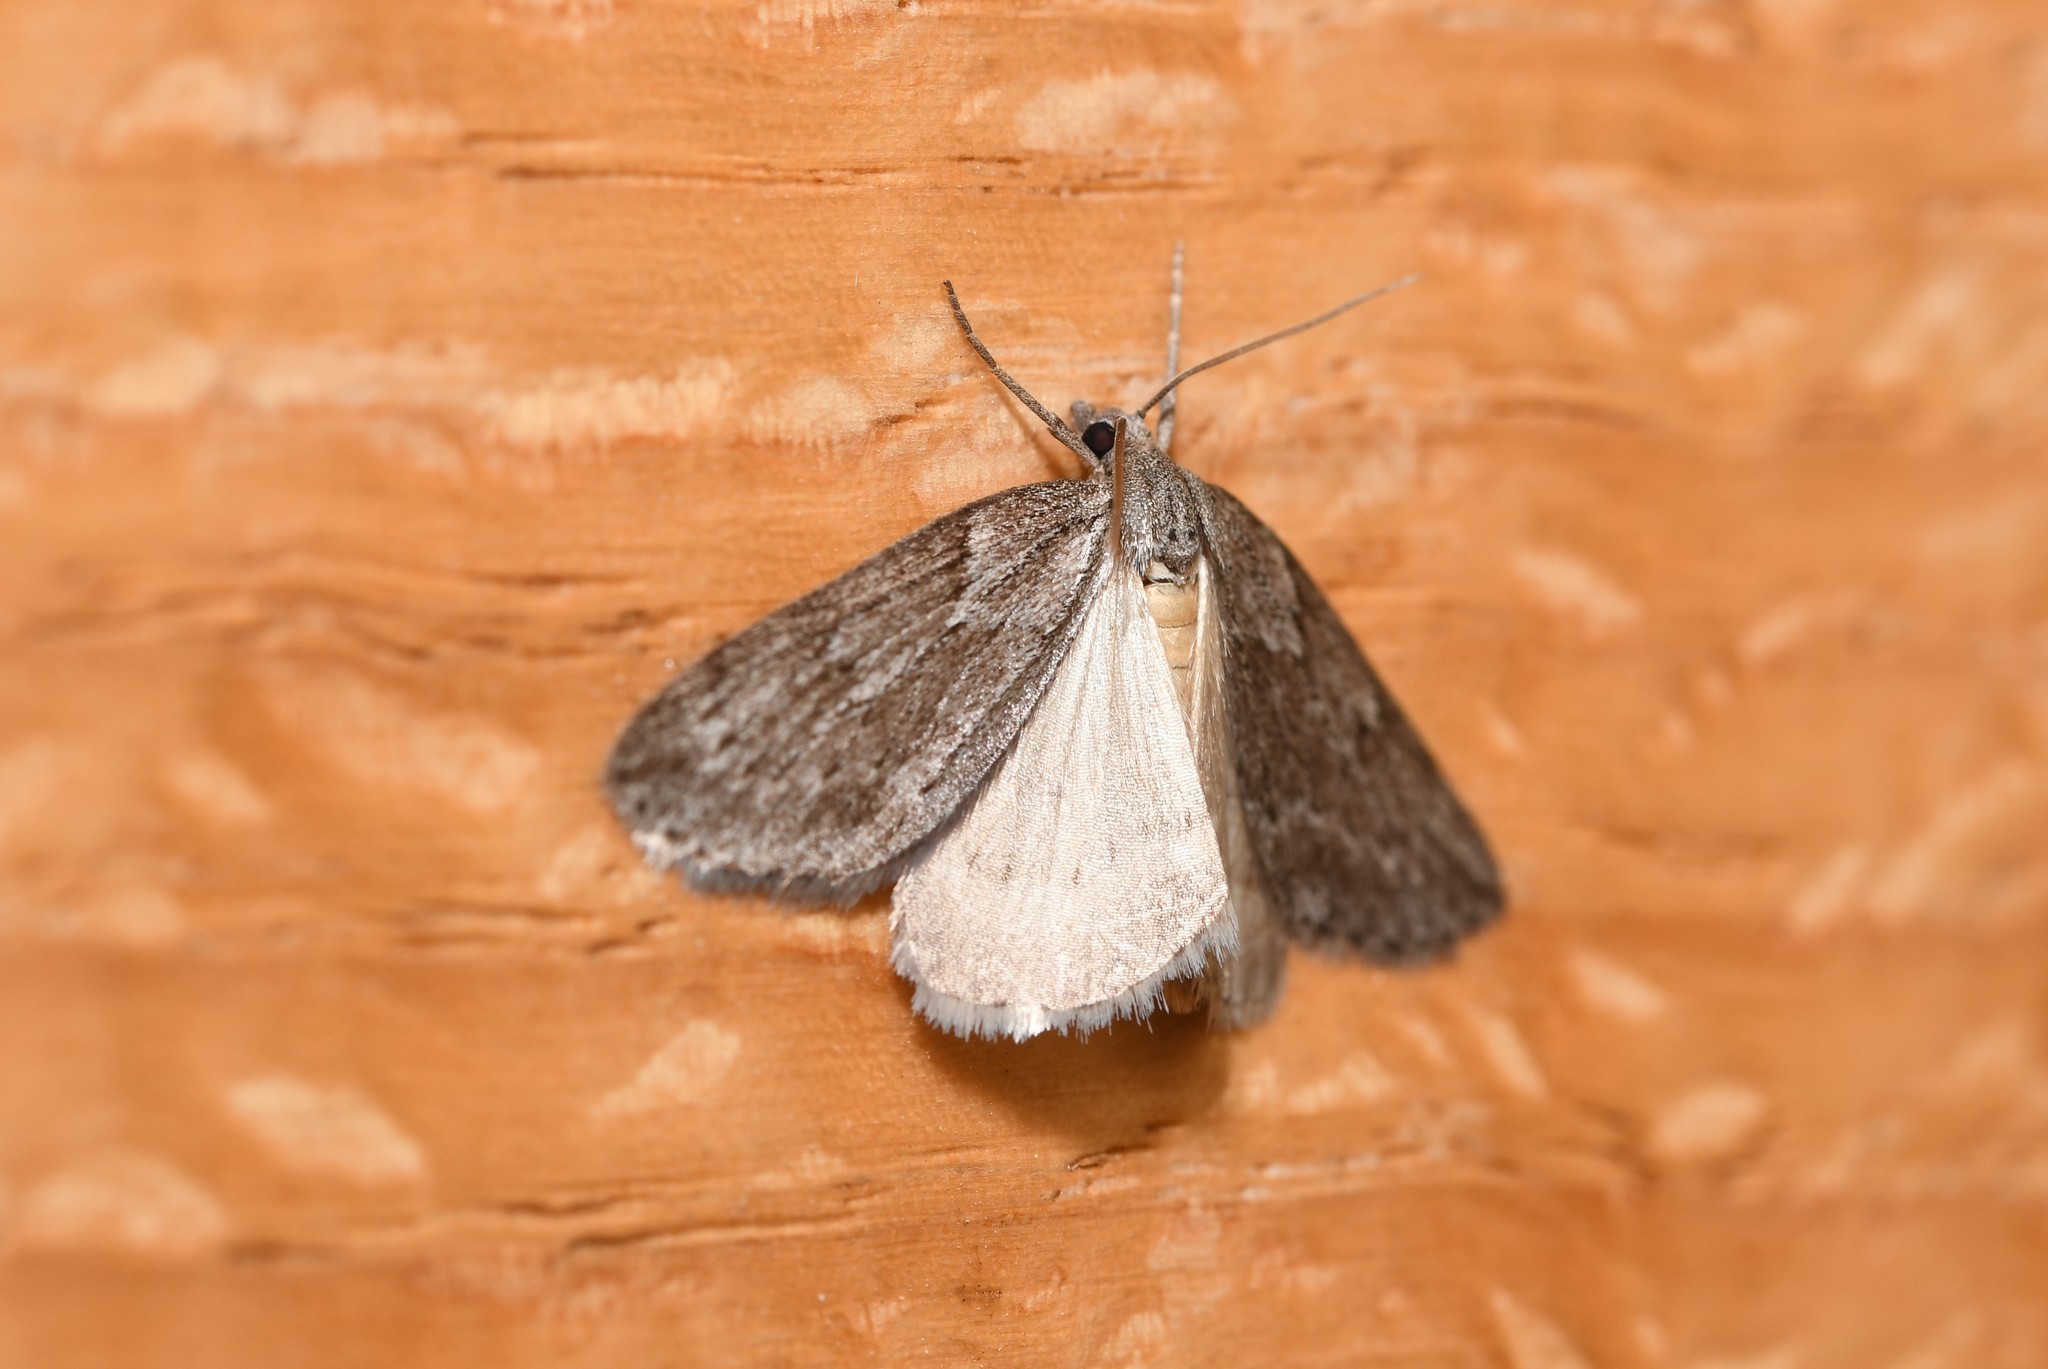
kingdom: Animalia
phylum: Arthropoda
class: Insecta
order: Lepidoptera
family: Geometridae
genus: Pachycnemia
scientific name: Pachycnemia hippocastanaria
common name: Horse chestnut
